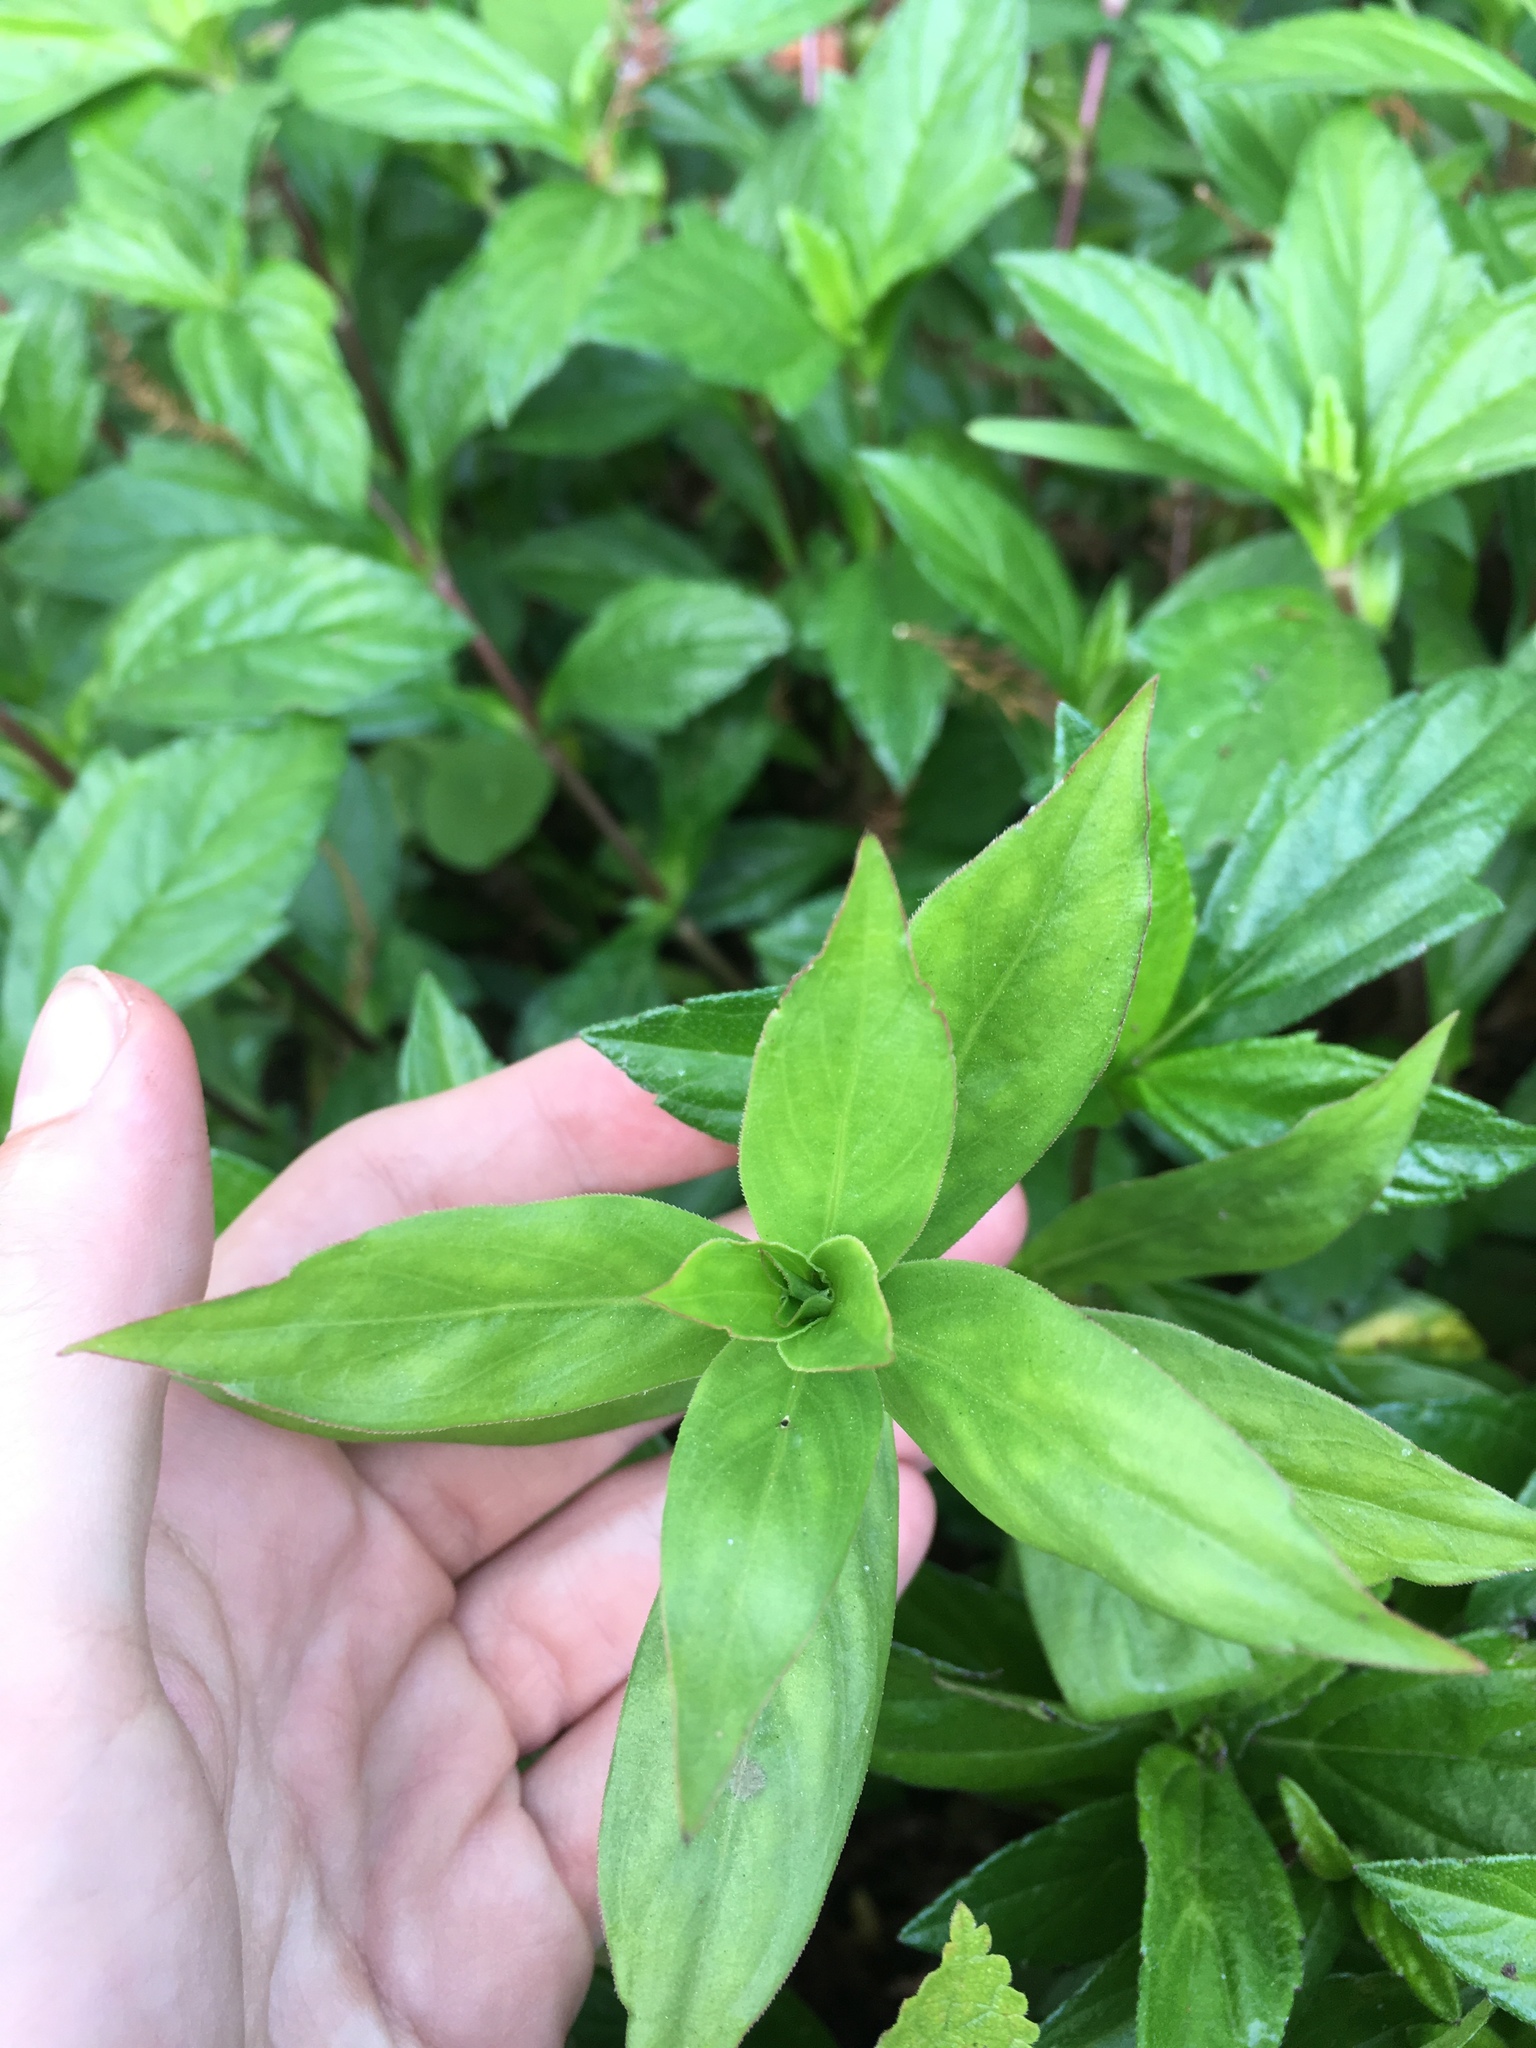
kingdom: Plantae
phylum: Tracheophyta
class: Magnoliopsida
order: Gentianales
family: Rubiaceae
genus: Diodia
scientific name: Diodia virginiana
